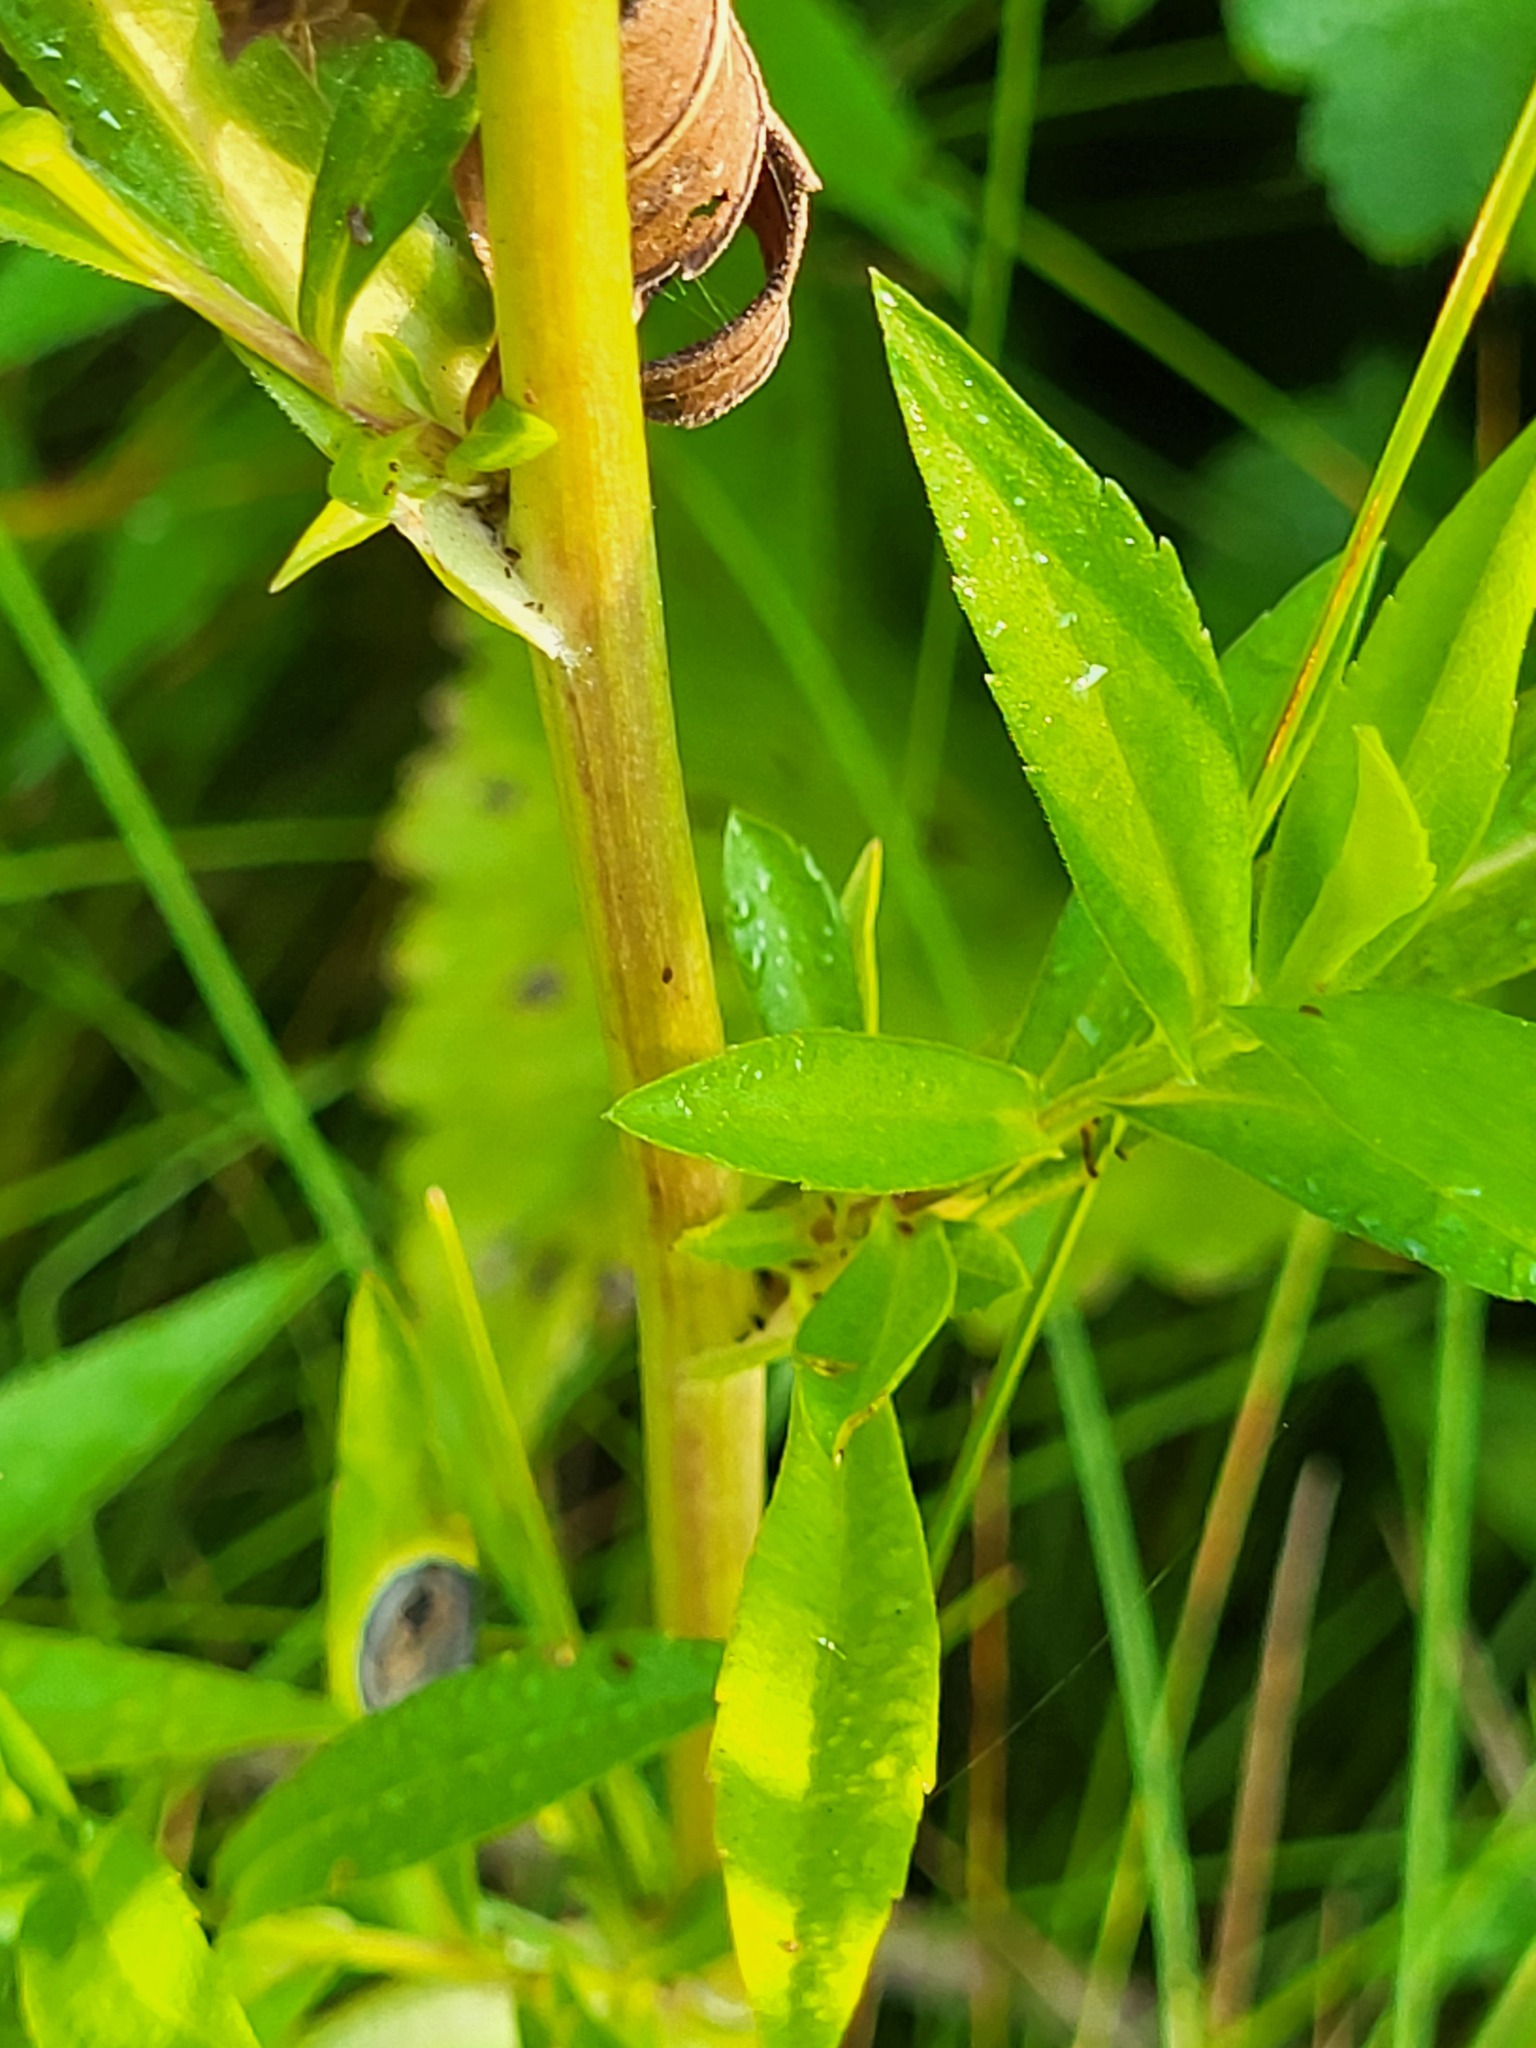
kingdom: Plantae
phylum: Tracheophyta
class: Magnoliopsida
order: Myrtales
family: Onagraceae
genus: Oenothera
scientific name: Oenothera biennis
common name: Common evening-primrose
